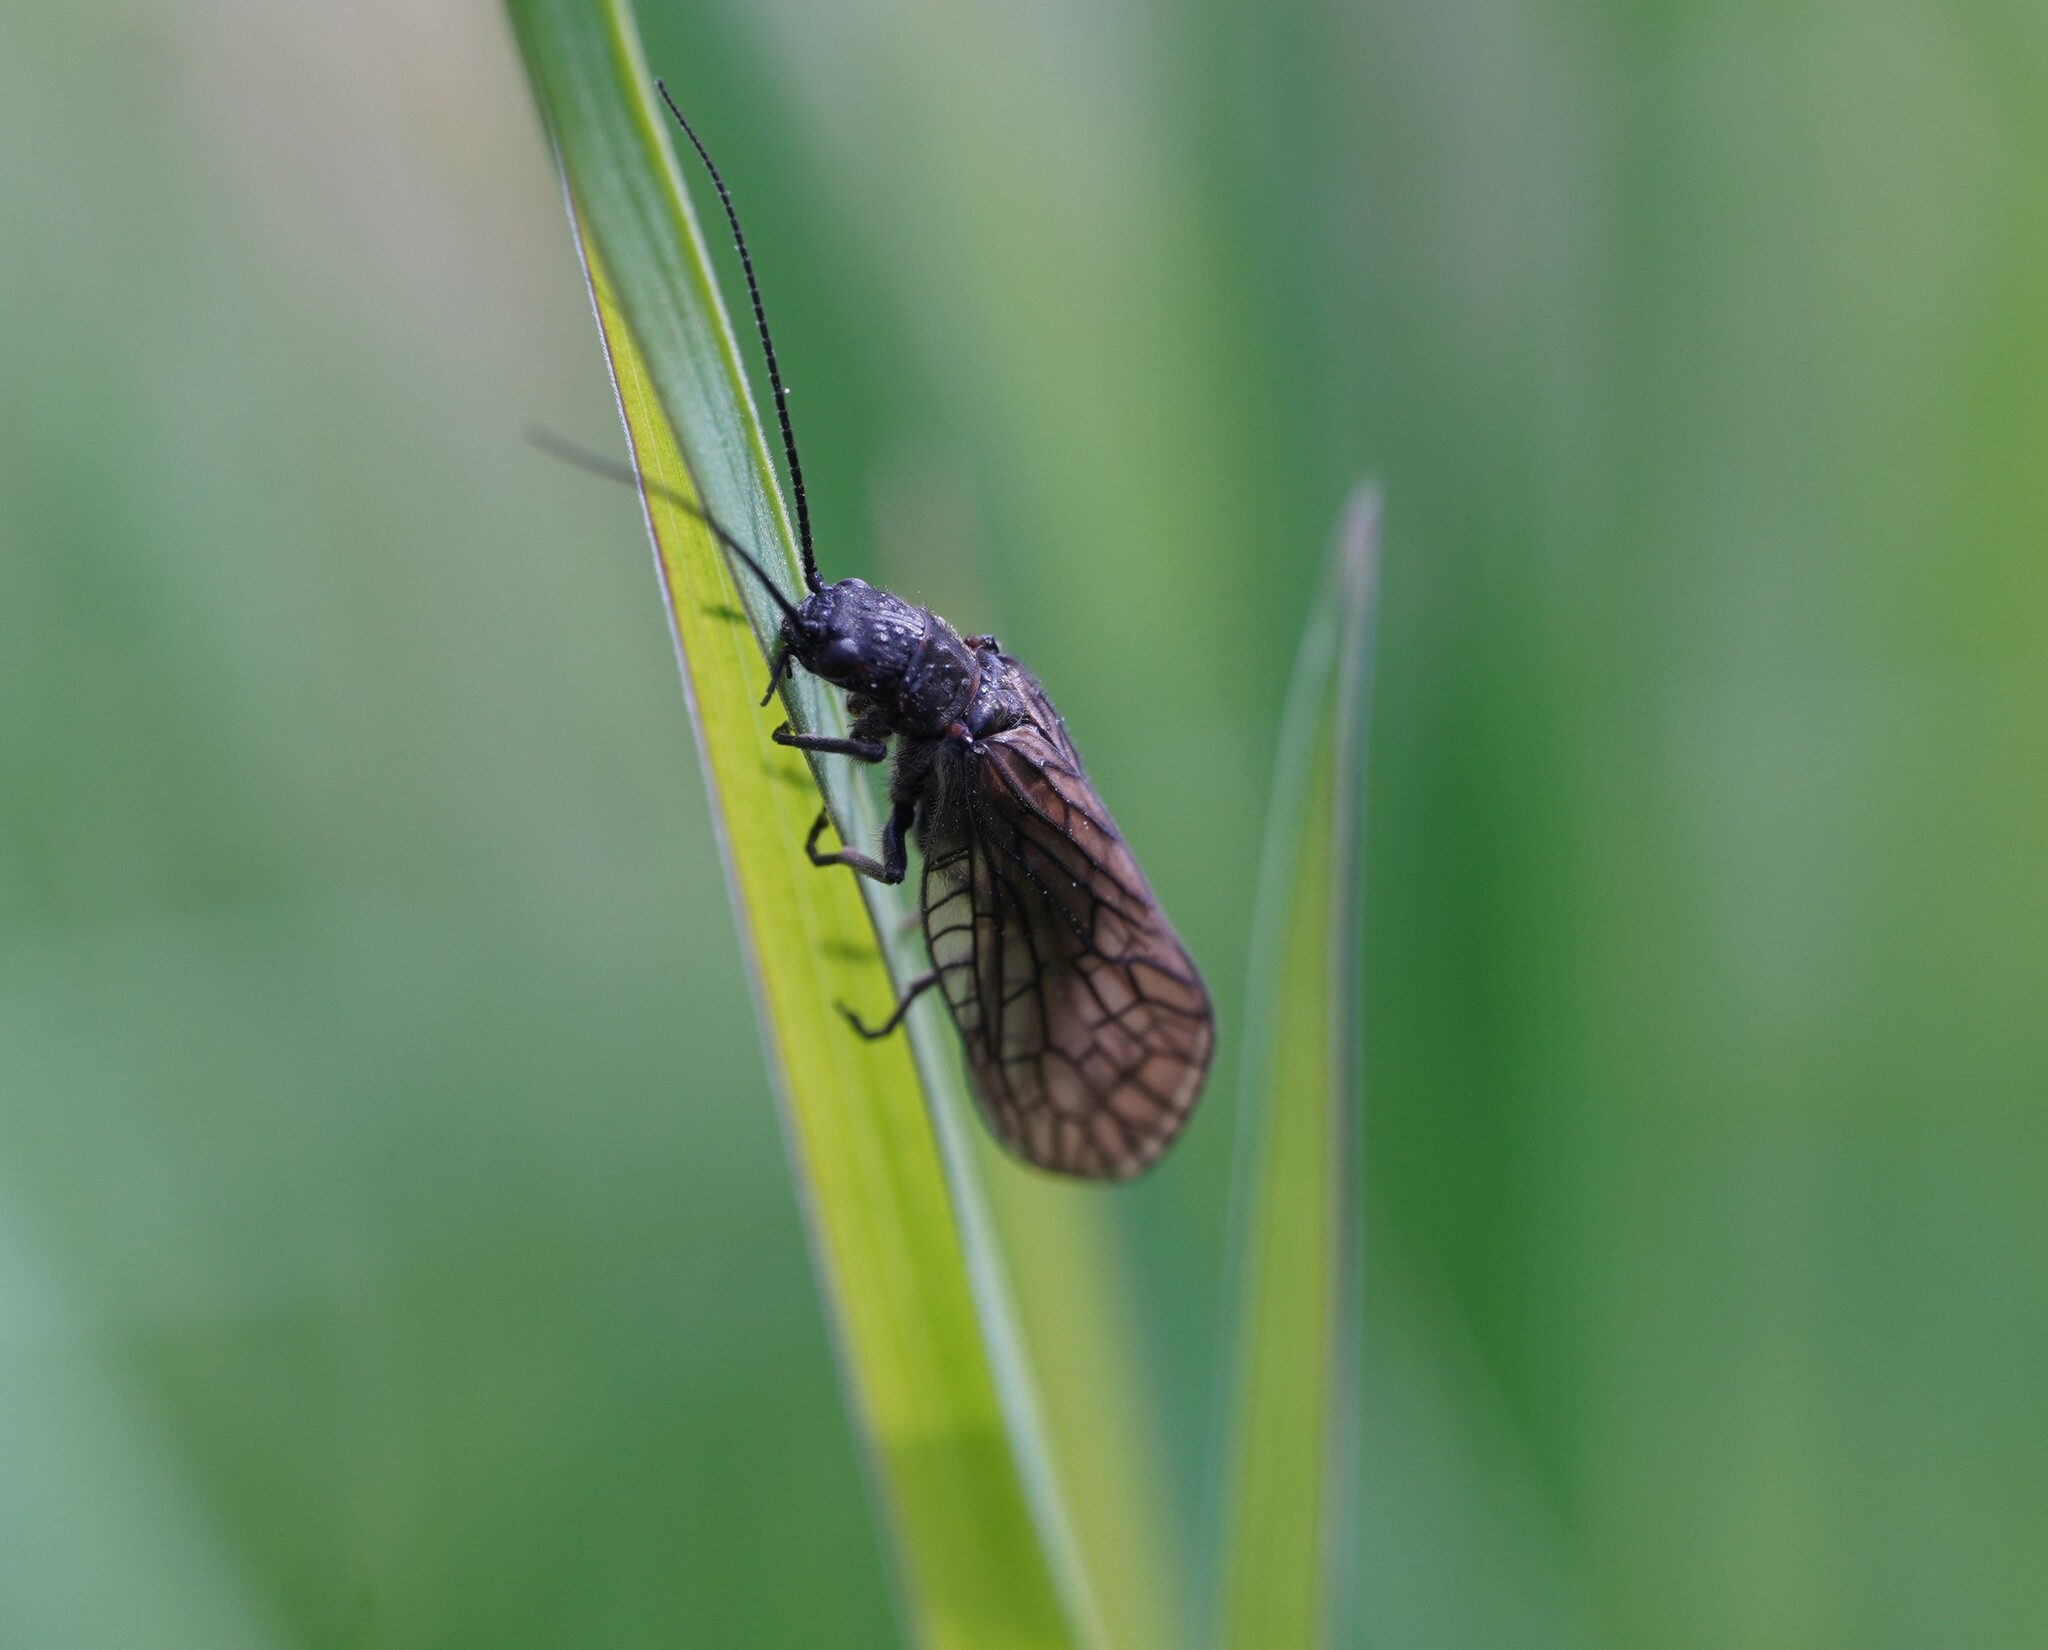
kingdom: Animalia
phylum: Arthropoda
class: Insecta
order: Megaloptera
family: Sialidae
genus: Sialis
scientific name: Sialis
